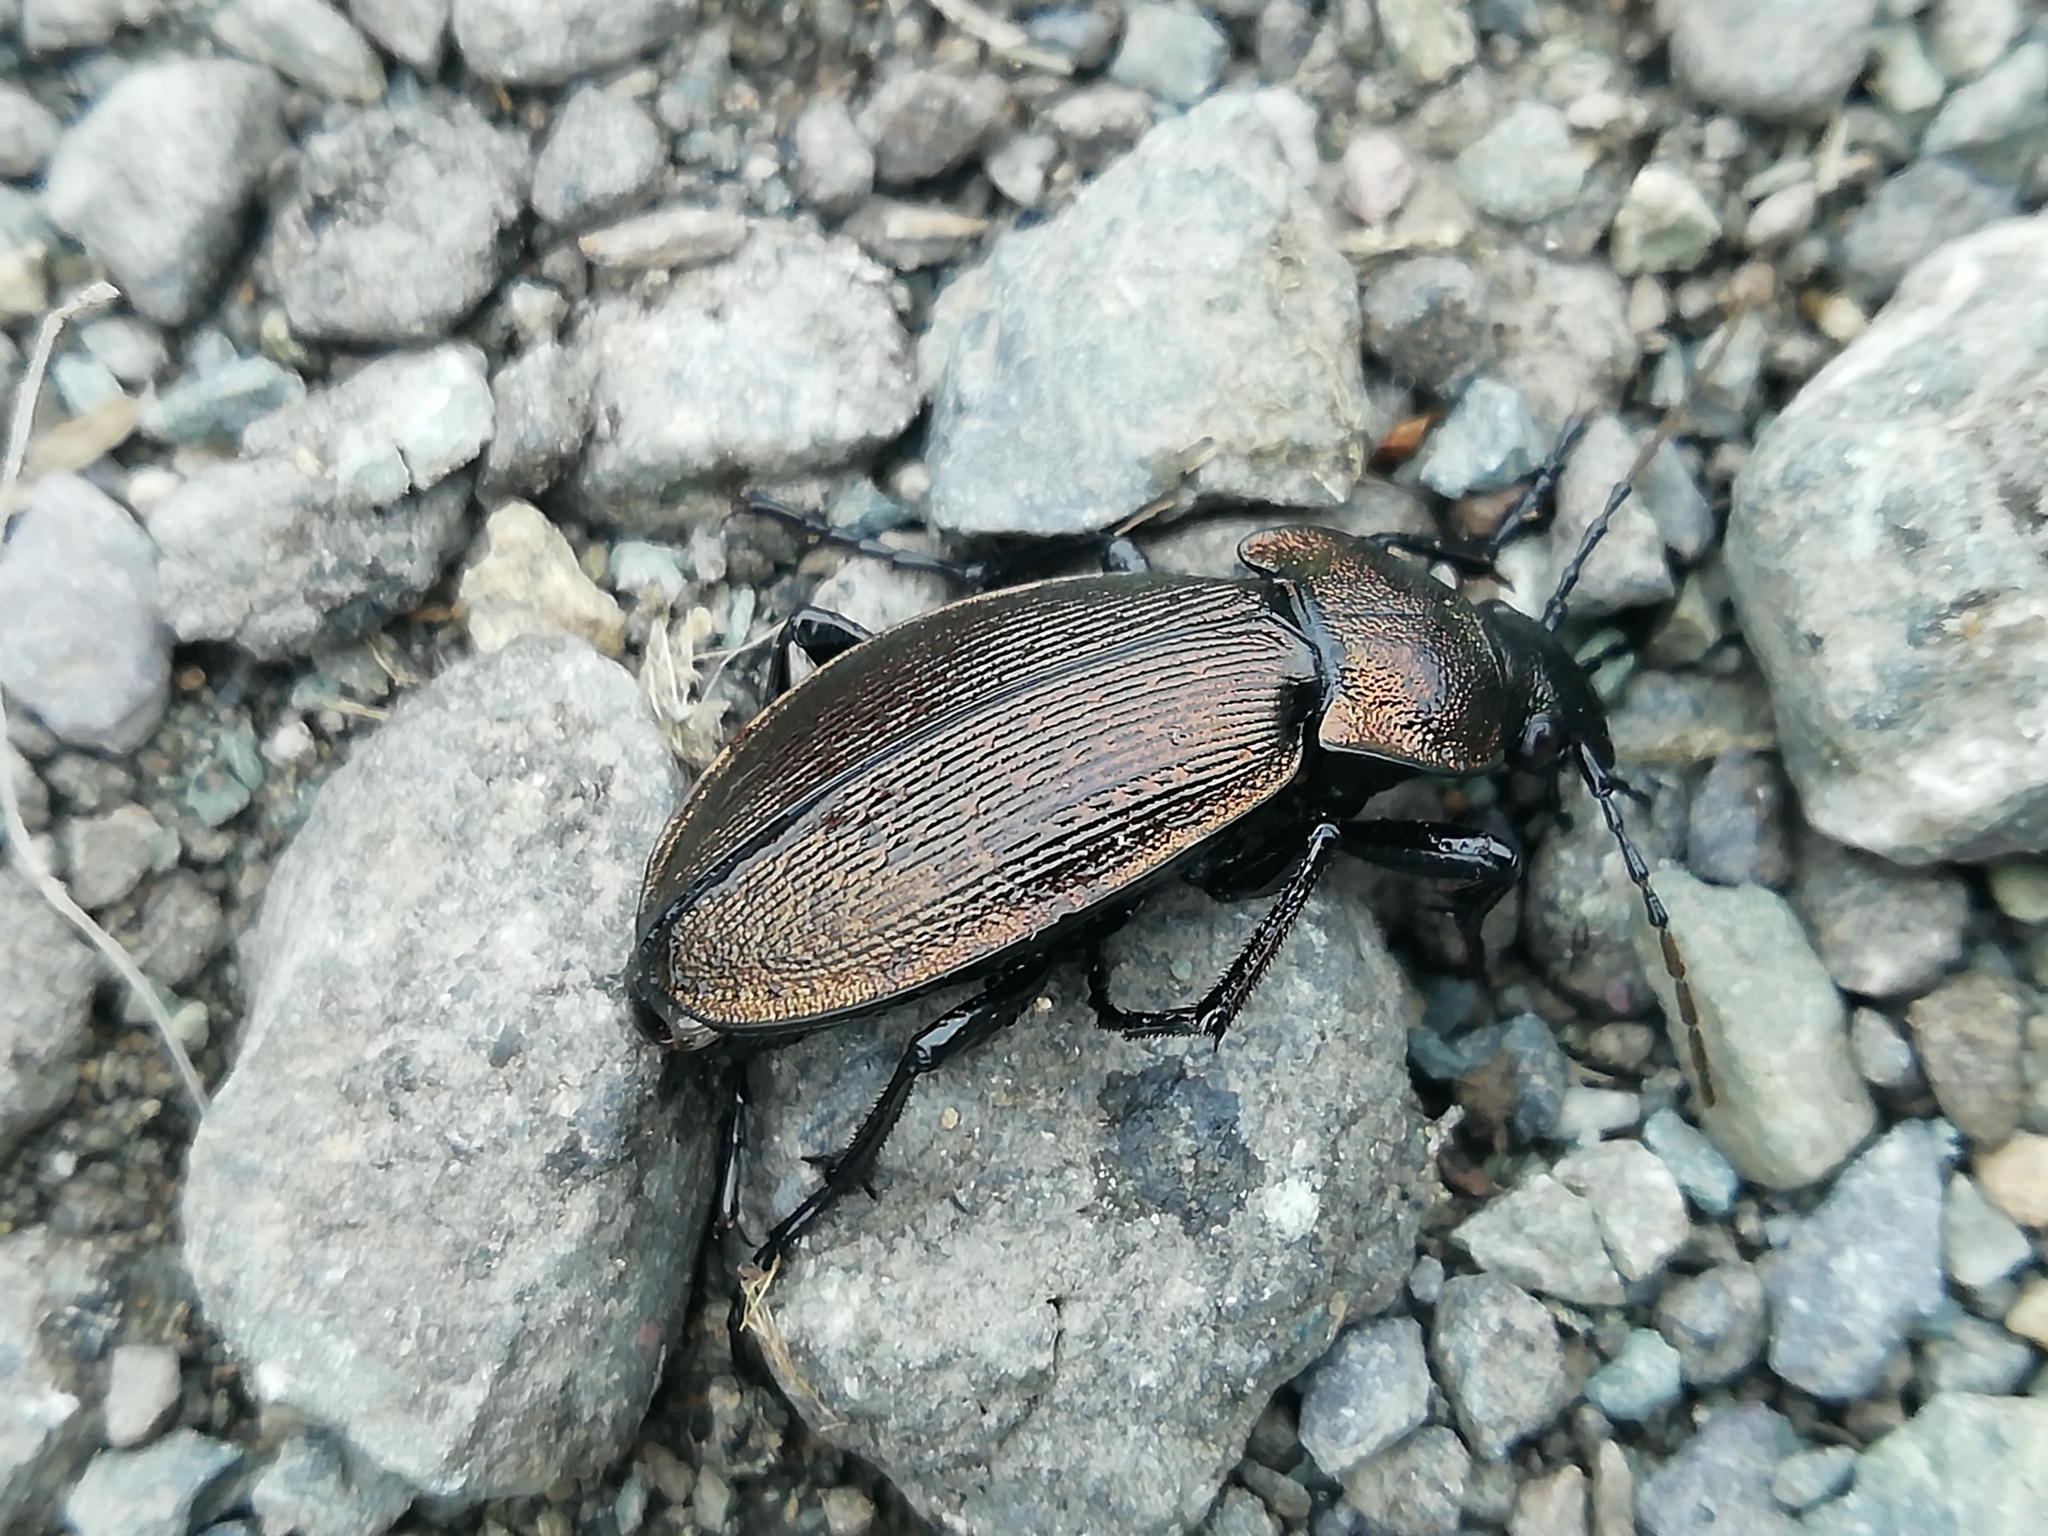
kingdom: Animalia
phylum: Arthropoda
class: Insecta
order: Coleoptera
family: Carabidae
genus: Carabus
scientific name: Carabus regalis
